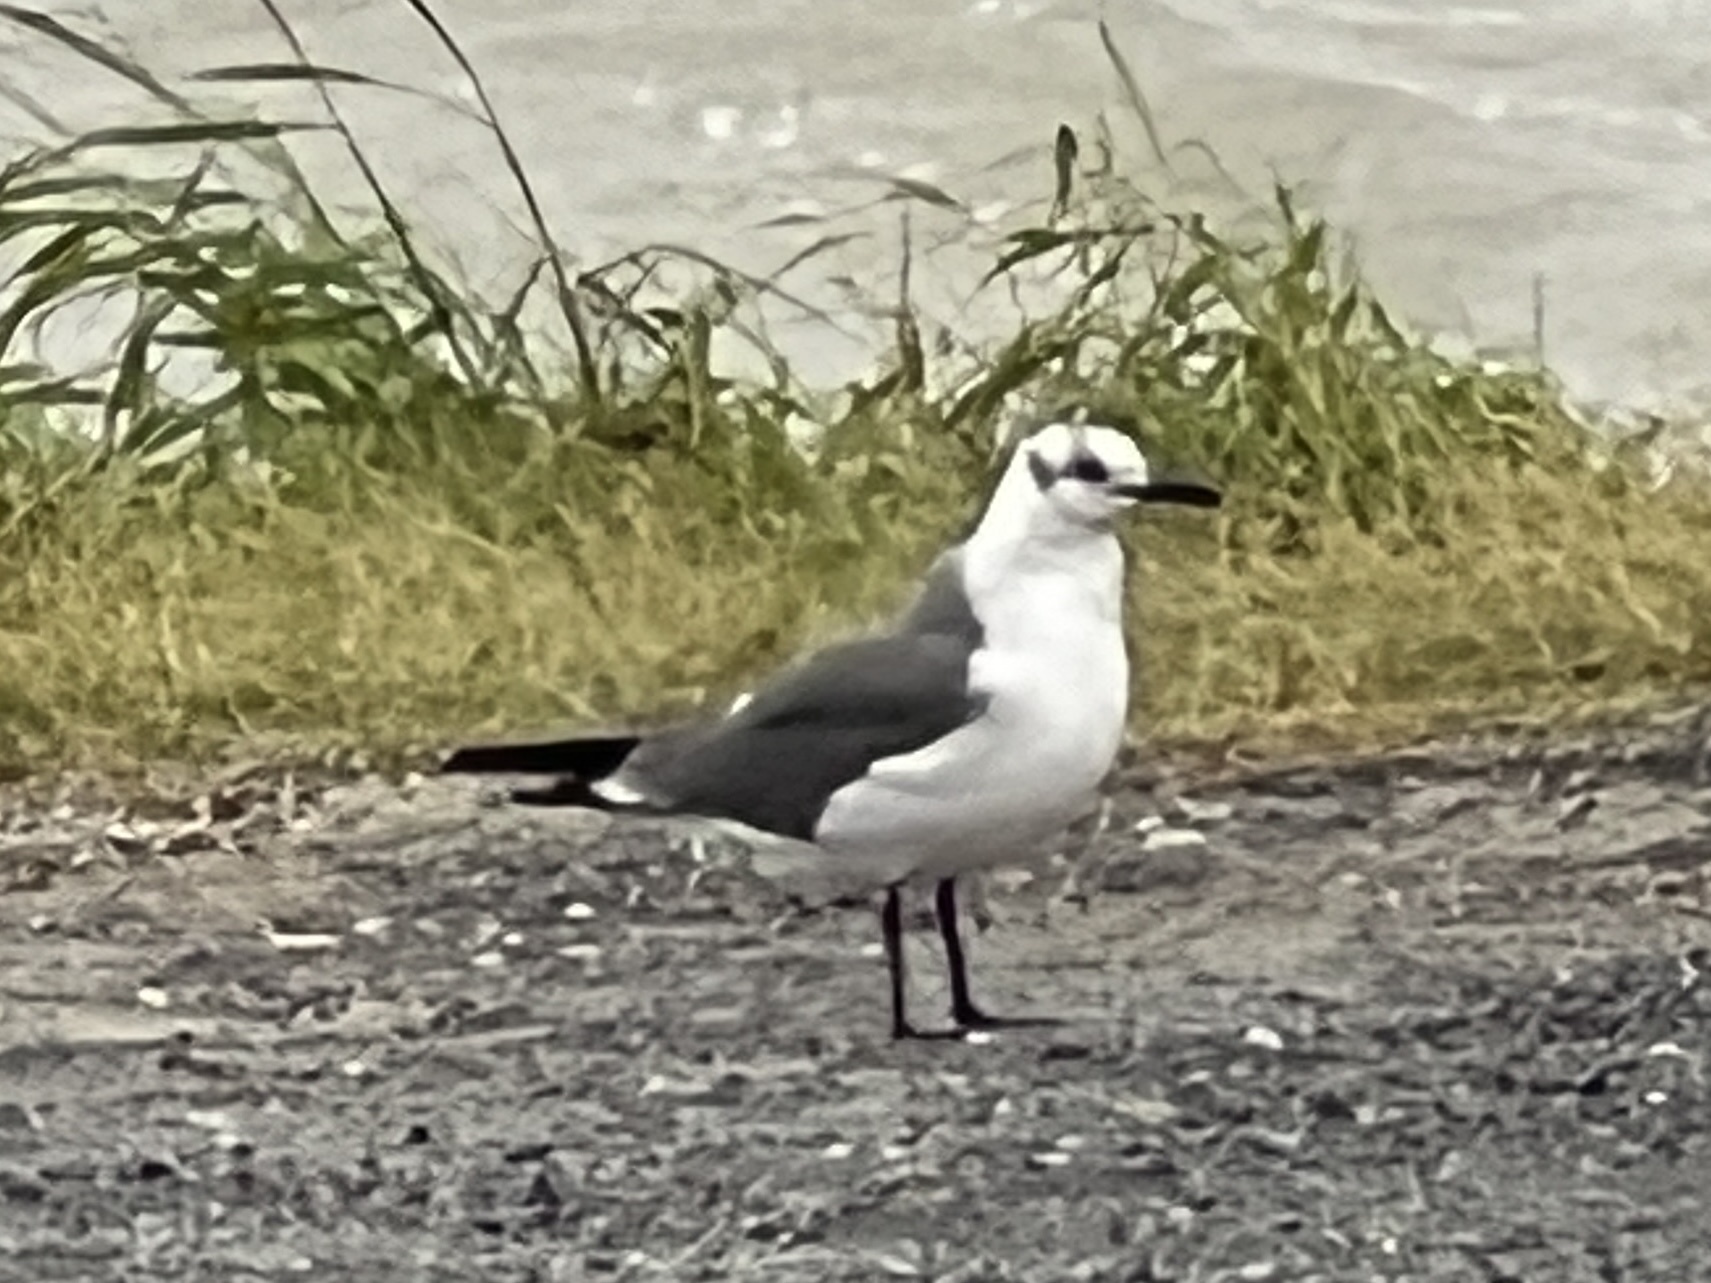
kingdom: Animalia
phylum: Chordata
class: Aves
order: Charadriiformes
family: Laridae
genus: Leucophaeus
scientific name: Leucophaeus atricilla
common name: Laughing gull
